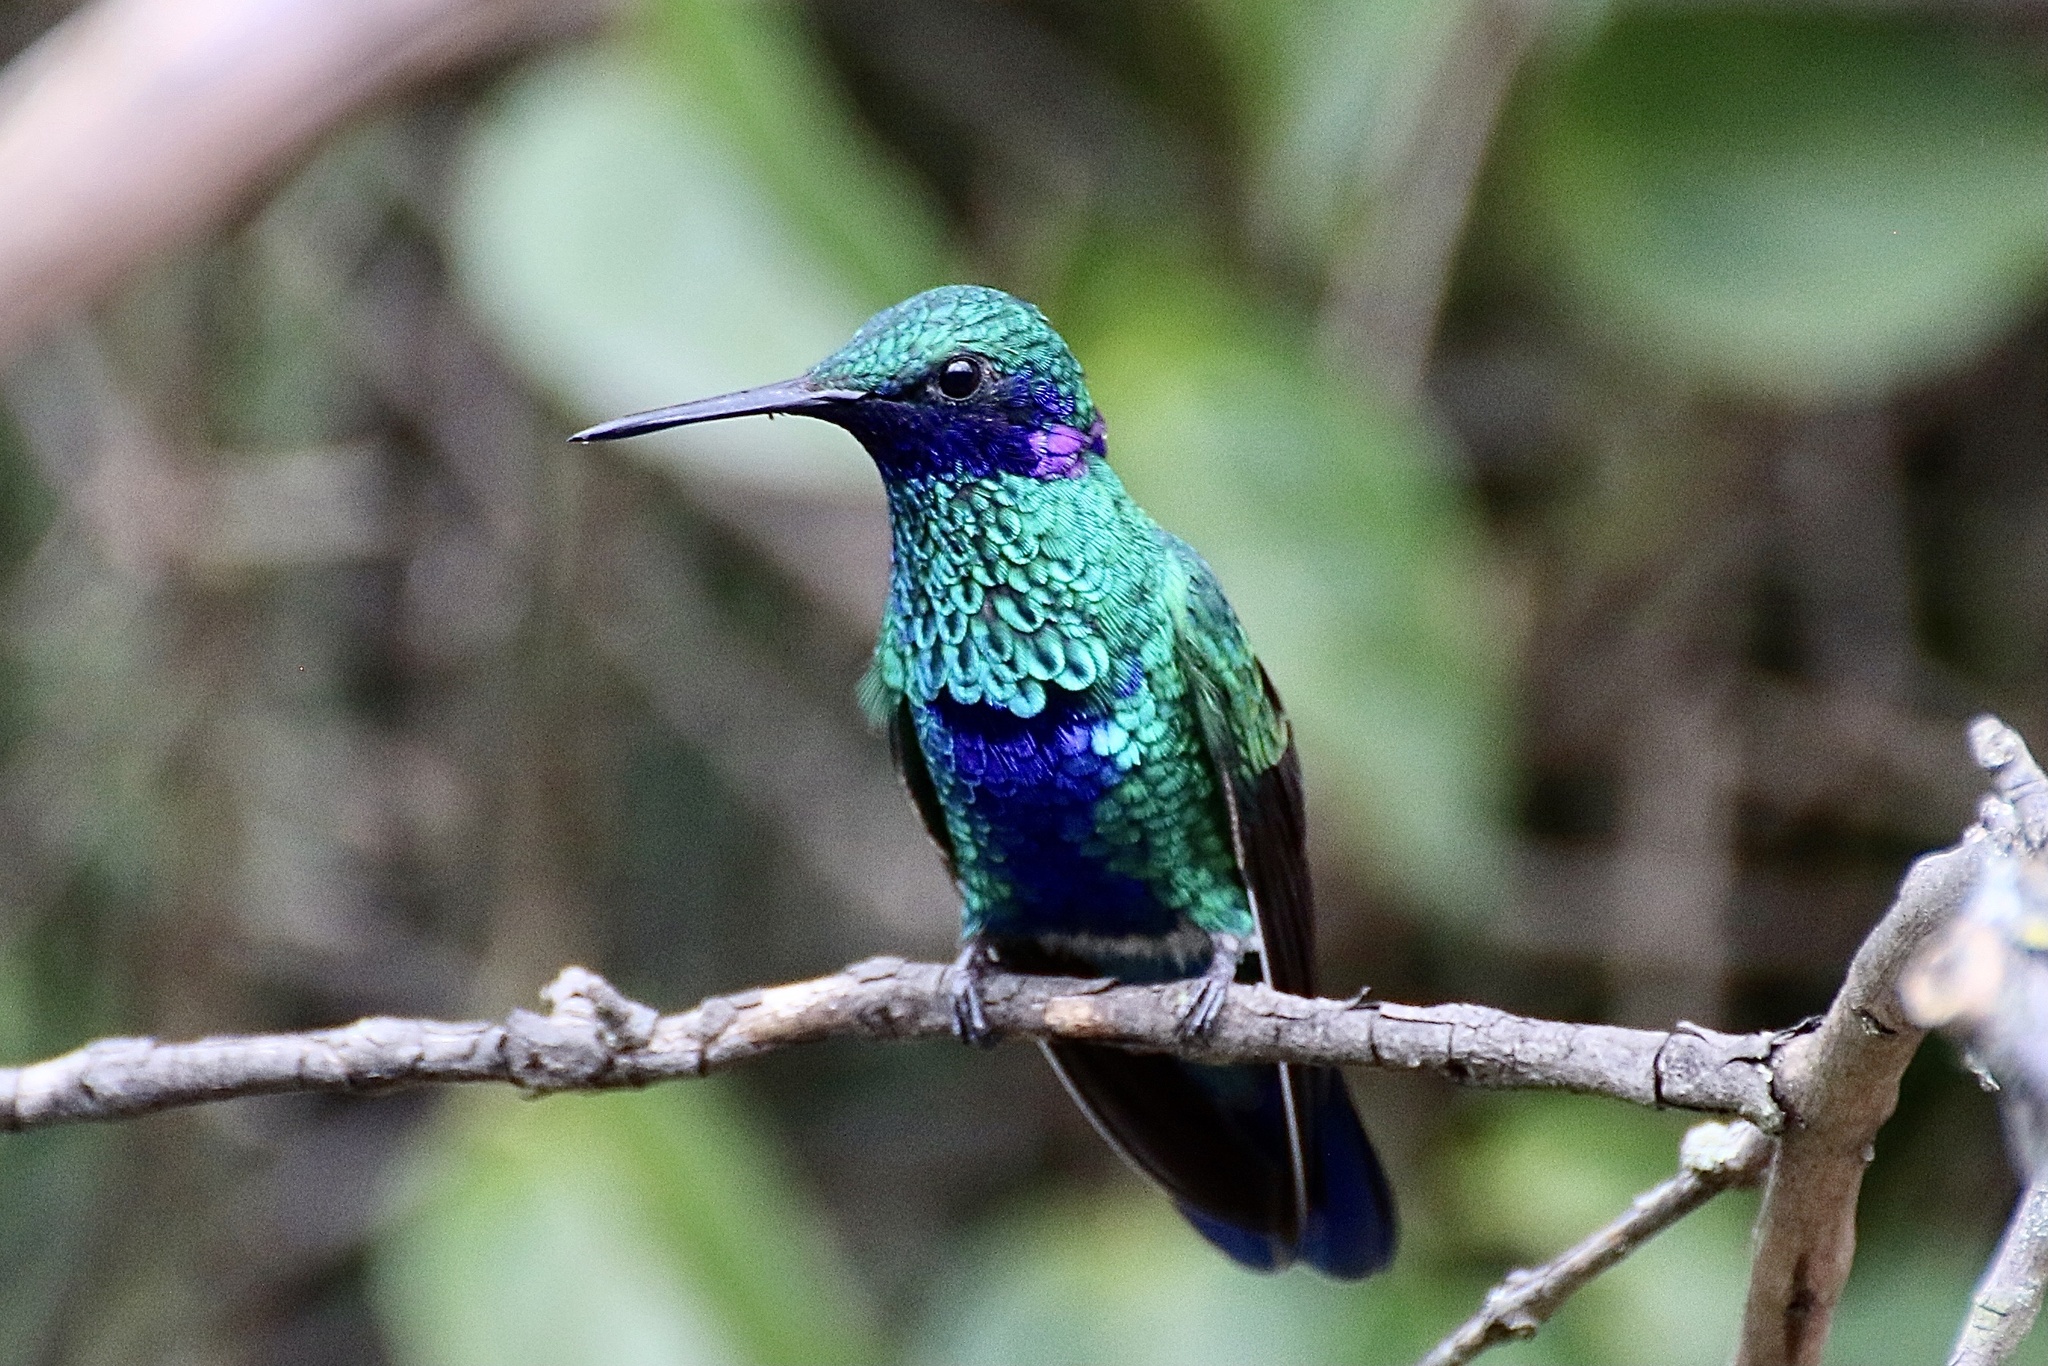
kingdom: Animalia
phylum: Chordata
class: Aves
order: Apodiformes
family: Trochilidae
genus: Colibri
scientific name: Colibri coruscans
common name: Sparkling violetear
